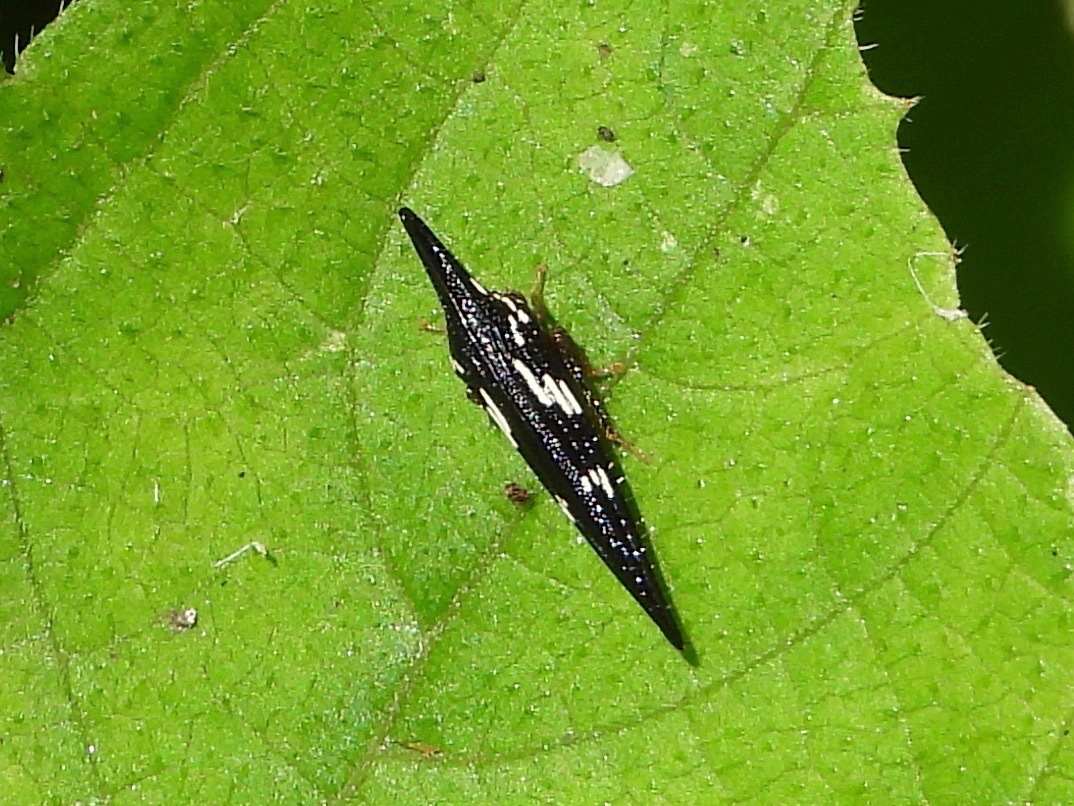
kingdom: Animalia
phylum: Arthropoda
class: Insecta
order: Hemiptera
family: Membracidae
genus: Polyglypta
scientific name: Polyglypta costata
